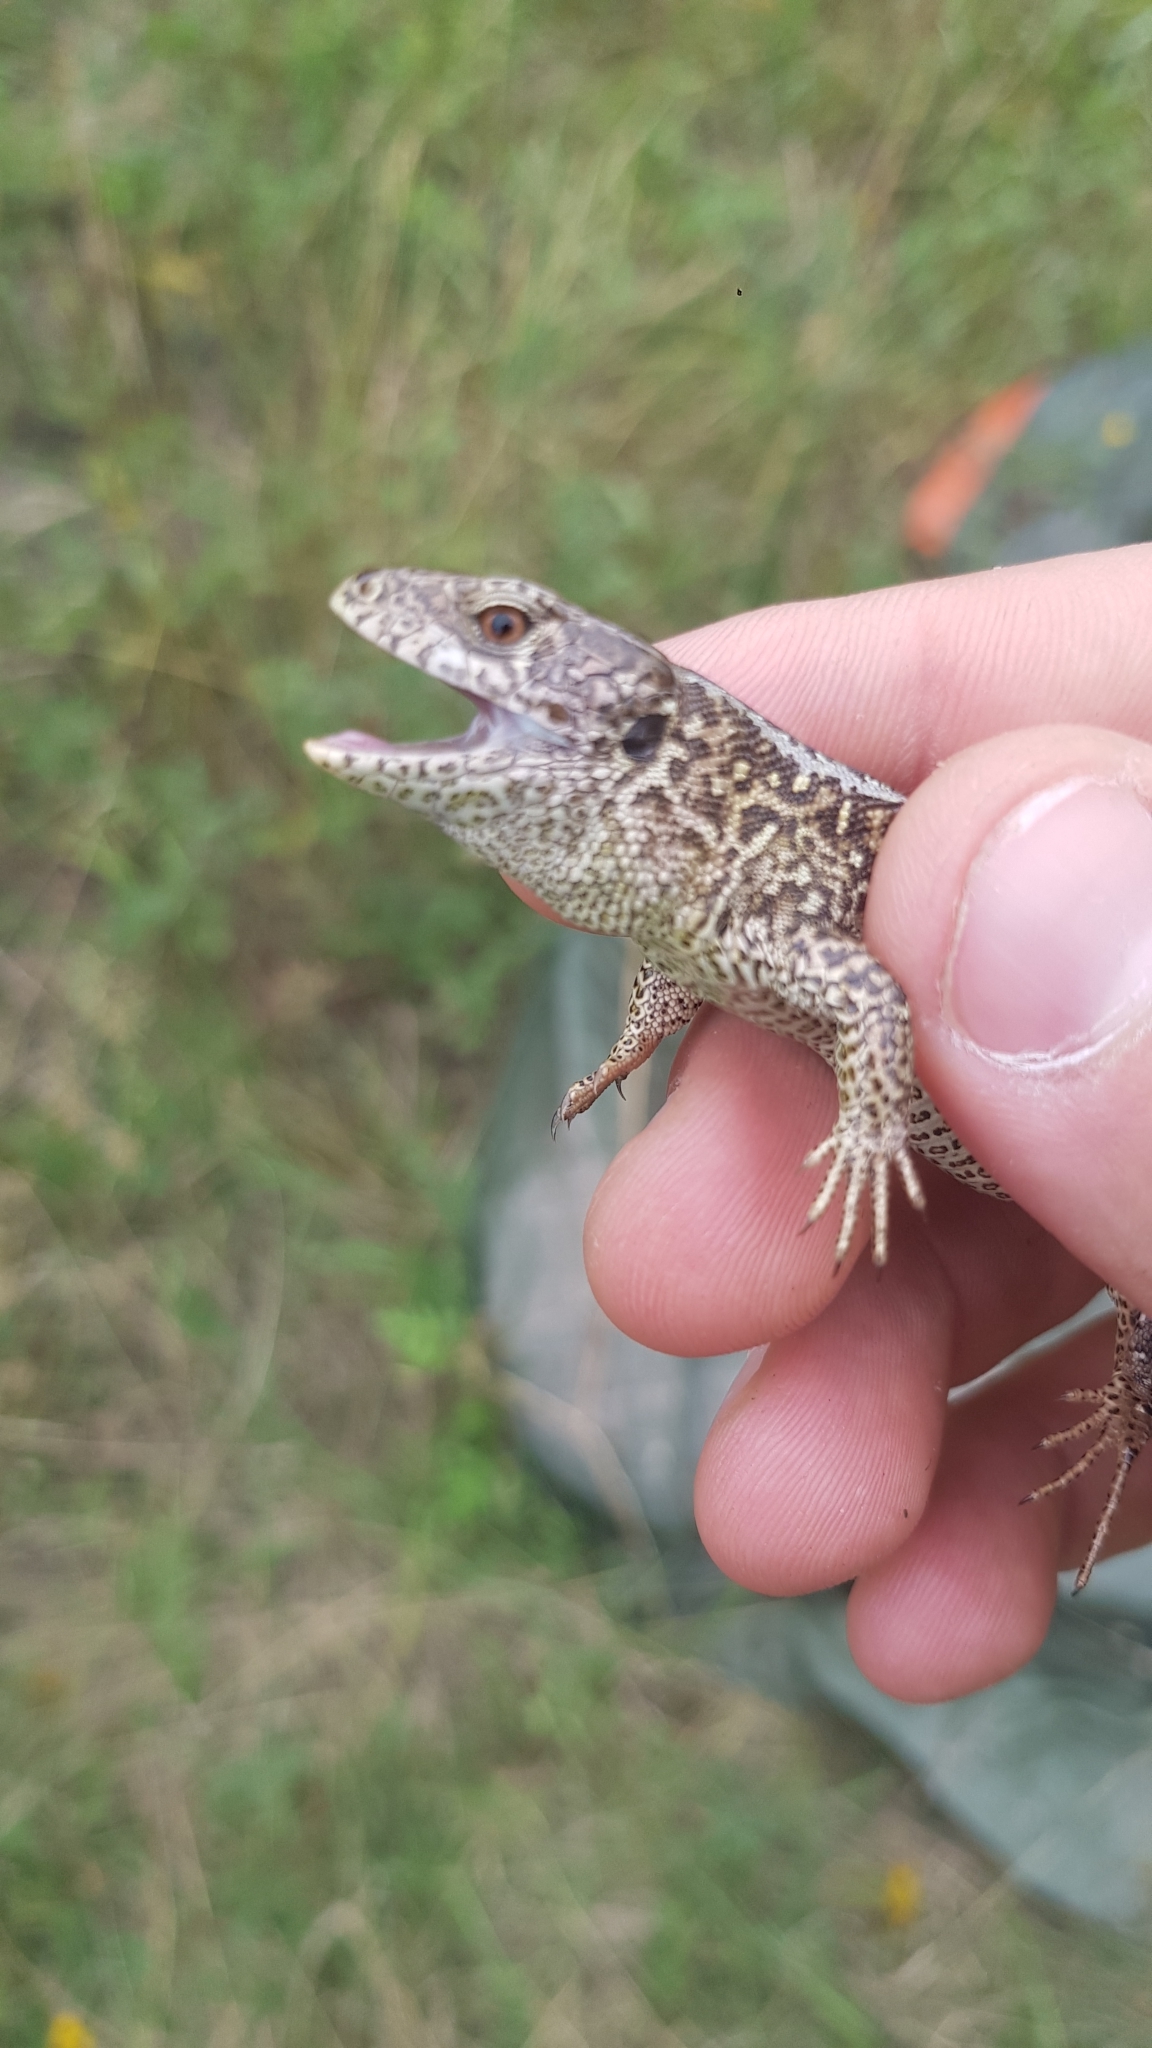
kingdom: Animalia
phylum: Chordata
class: Squamata
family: Lacertidae
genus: Lacerta
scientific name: Lacerta agilis
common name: Sand lizard
